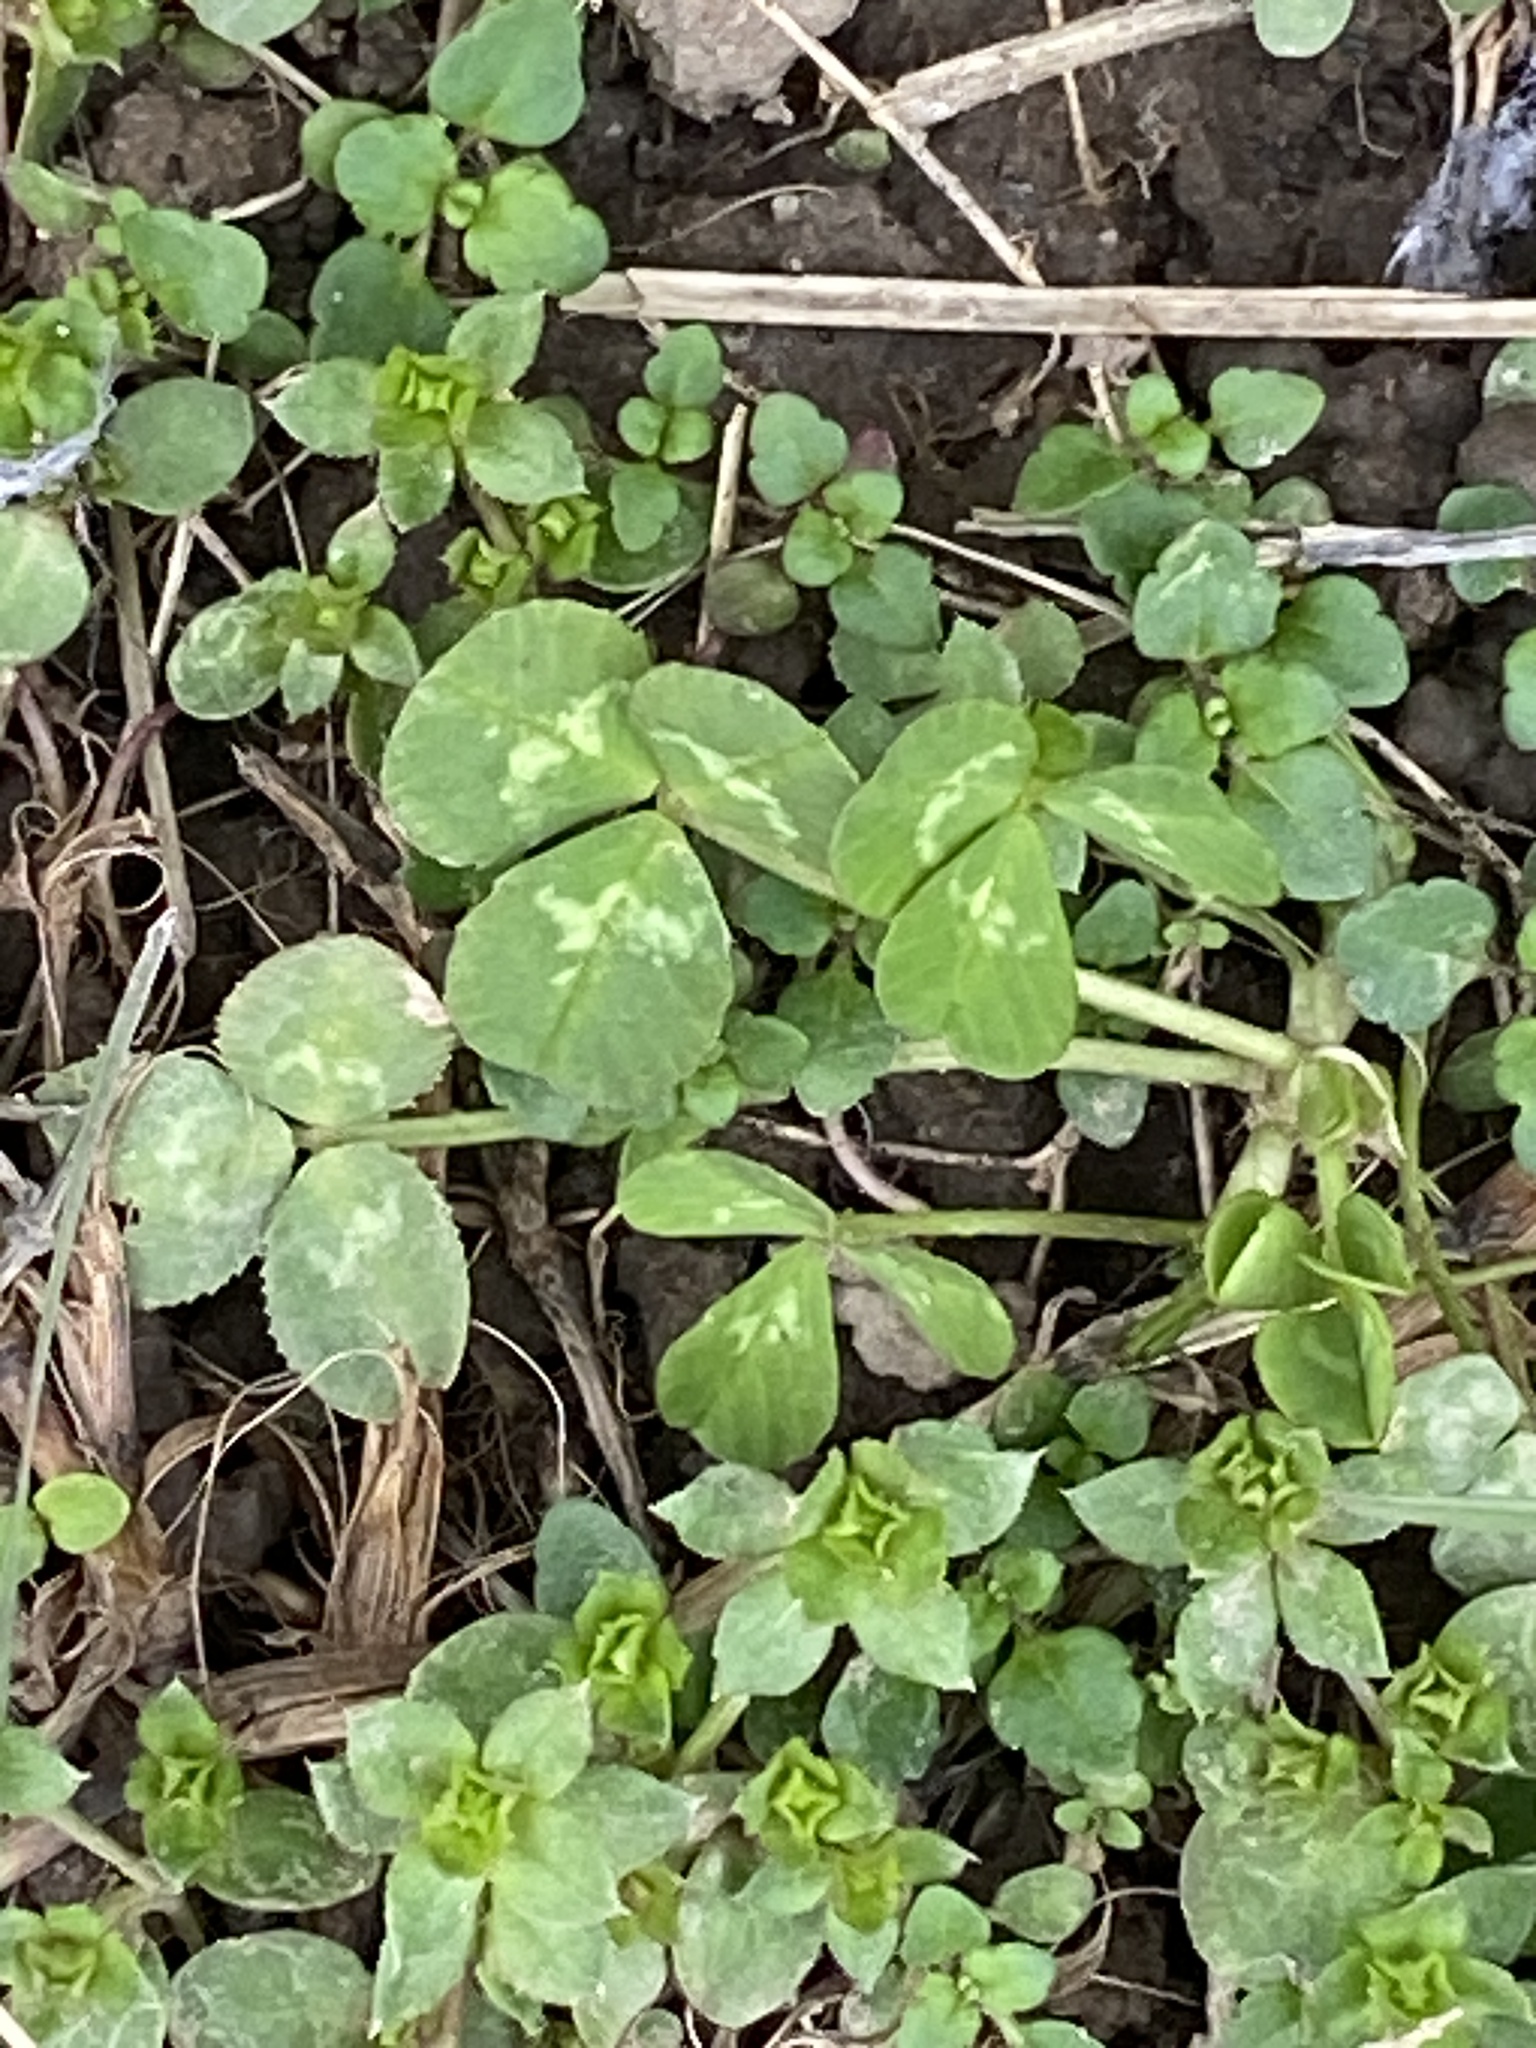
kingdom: Plantae
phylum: Tracheophyta
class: Magnoliopsida
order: Fabales
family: Fabaceae
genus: Trifolium
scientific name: Trifolium repens
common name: White clover
